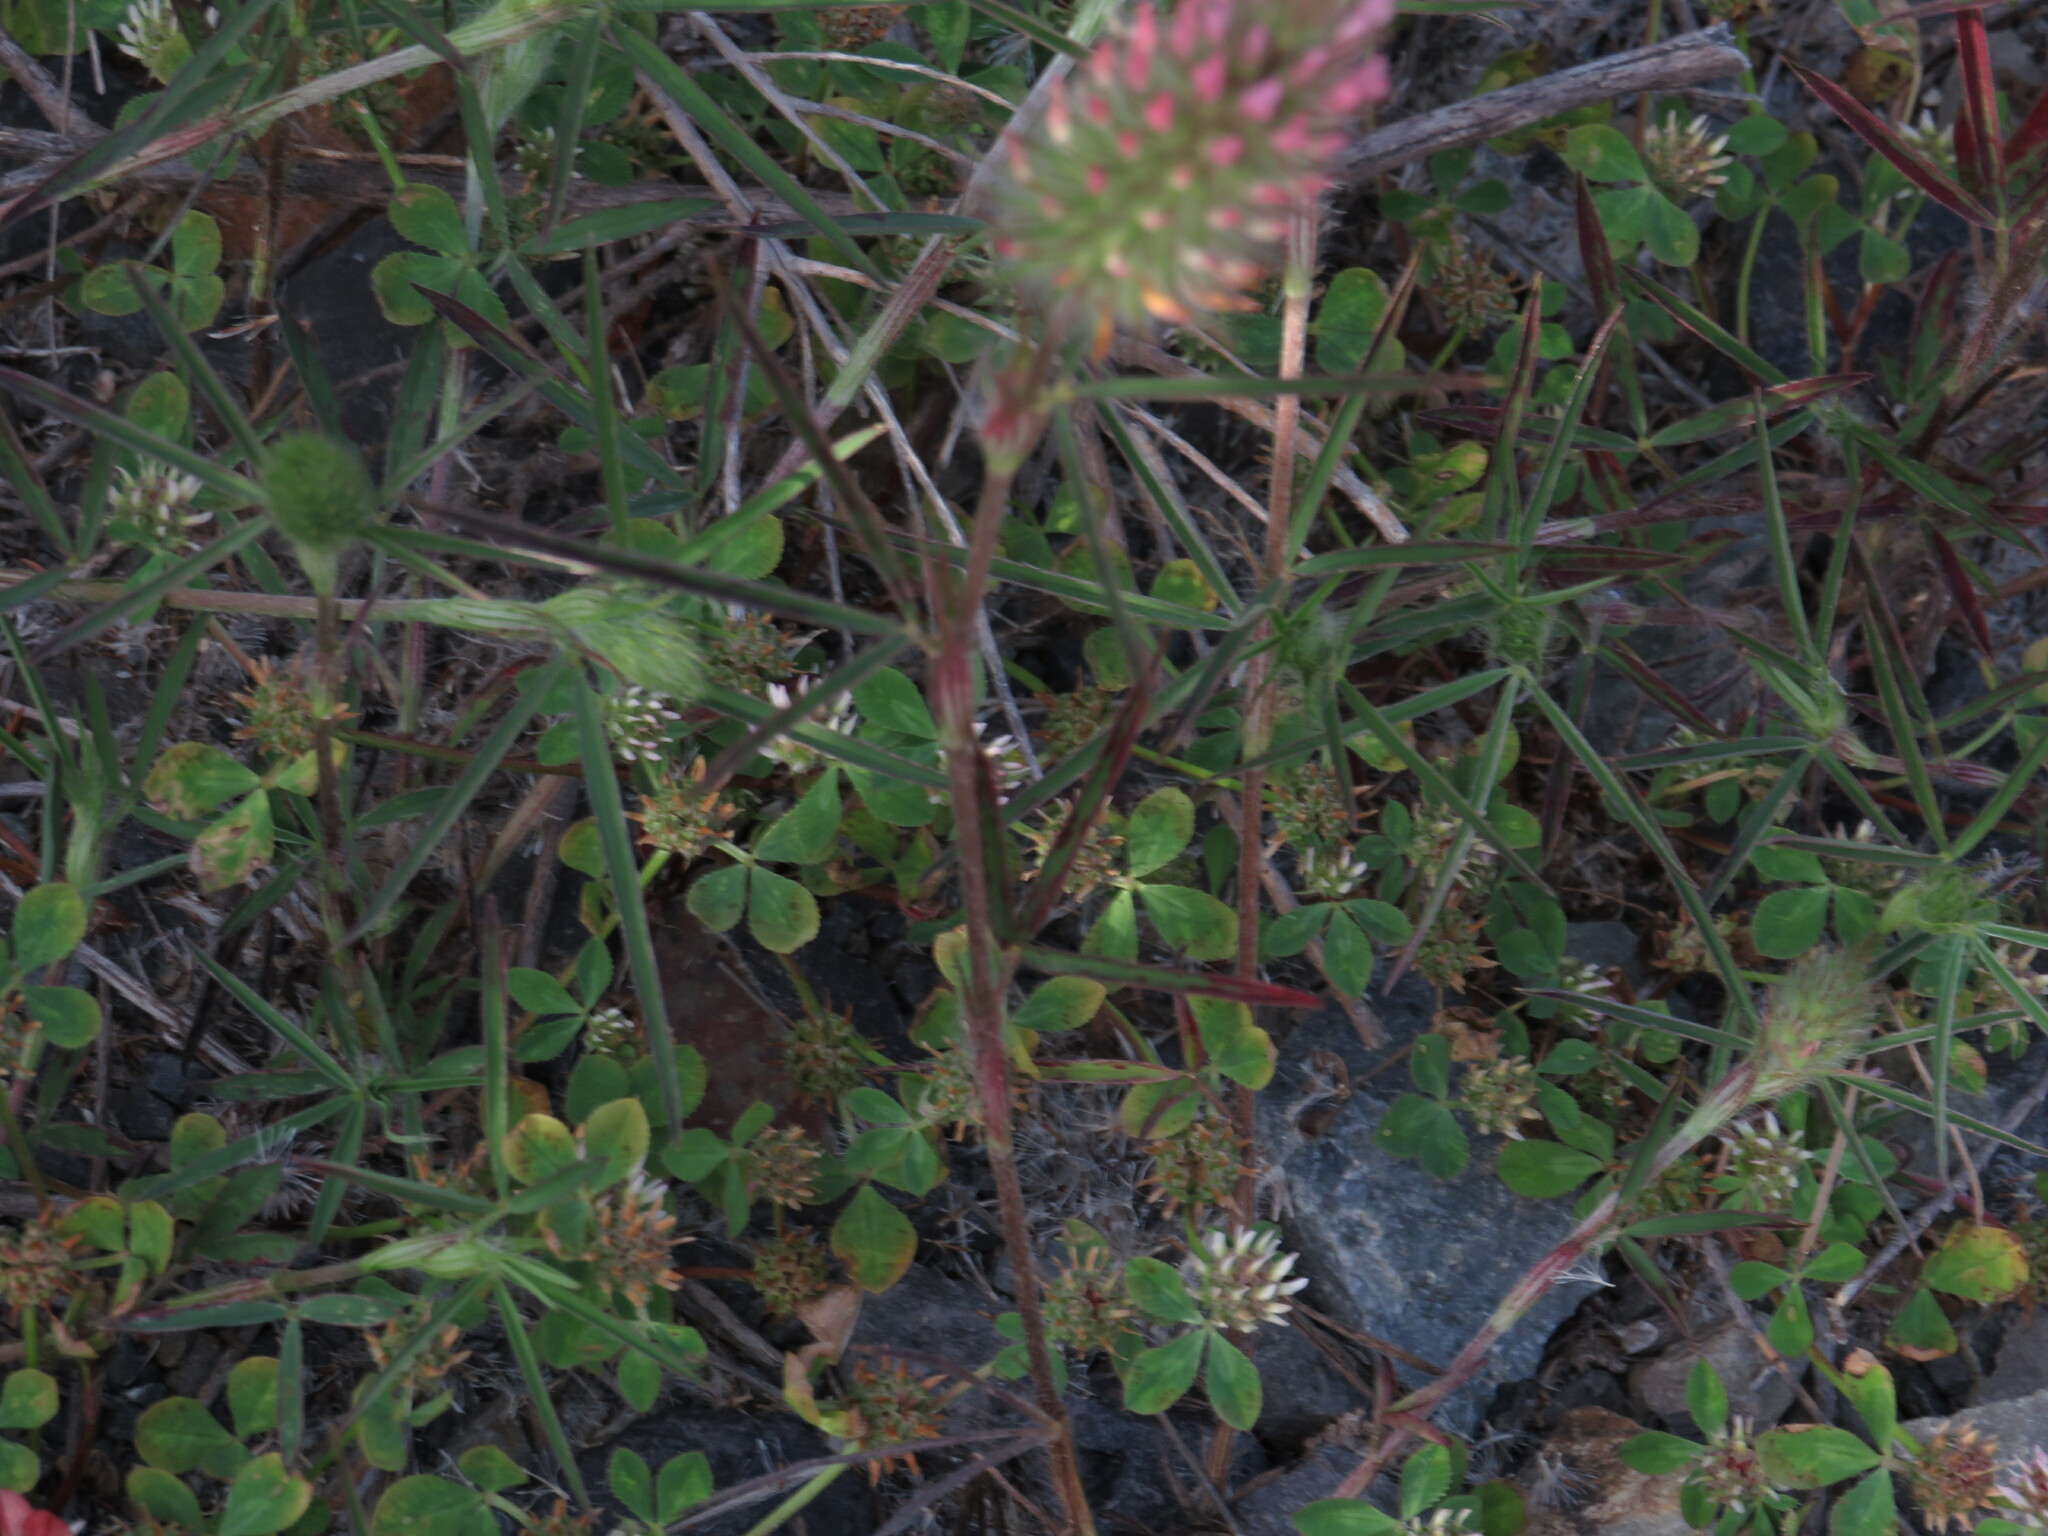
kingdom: Plantae
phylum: Tracheophyta
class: Magnoliopsida
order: Fabales
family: Fabaceae
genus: Trifolium
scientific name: Trifolium angustifolium
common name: Narrow clover
